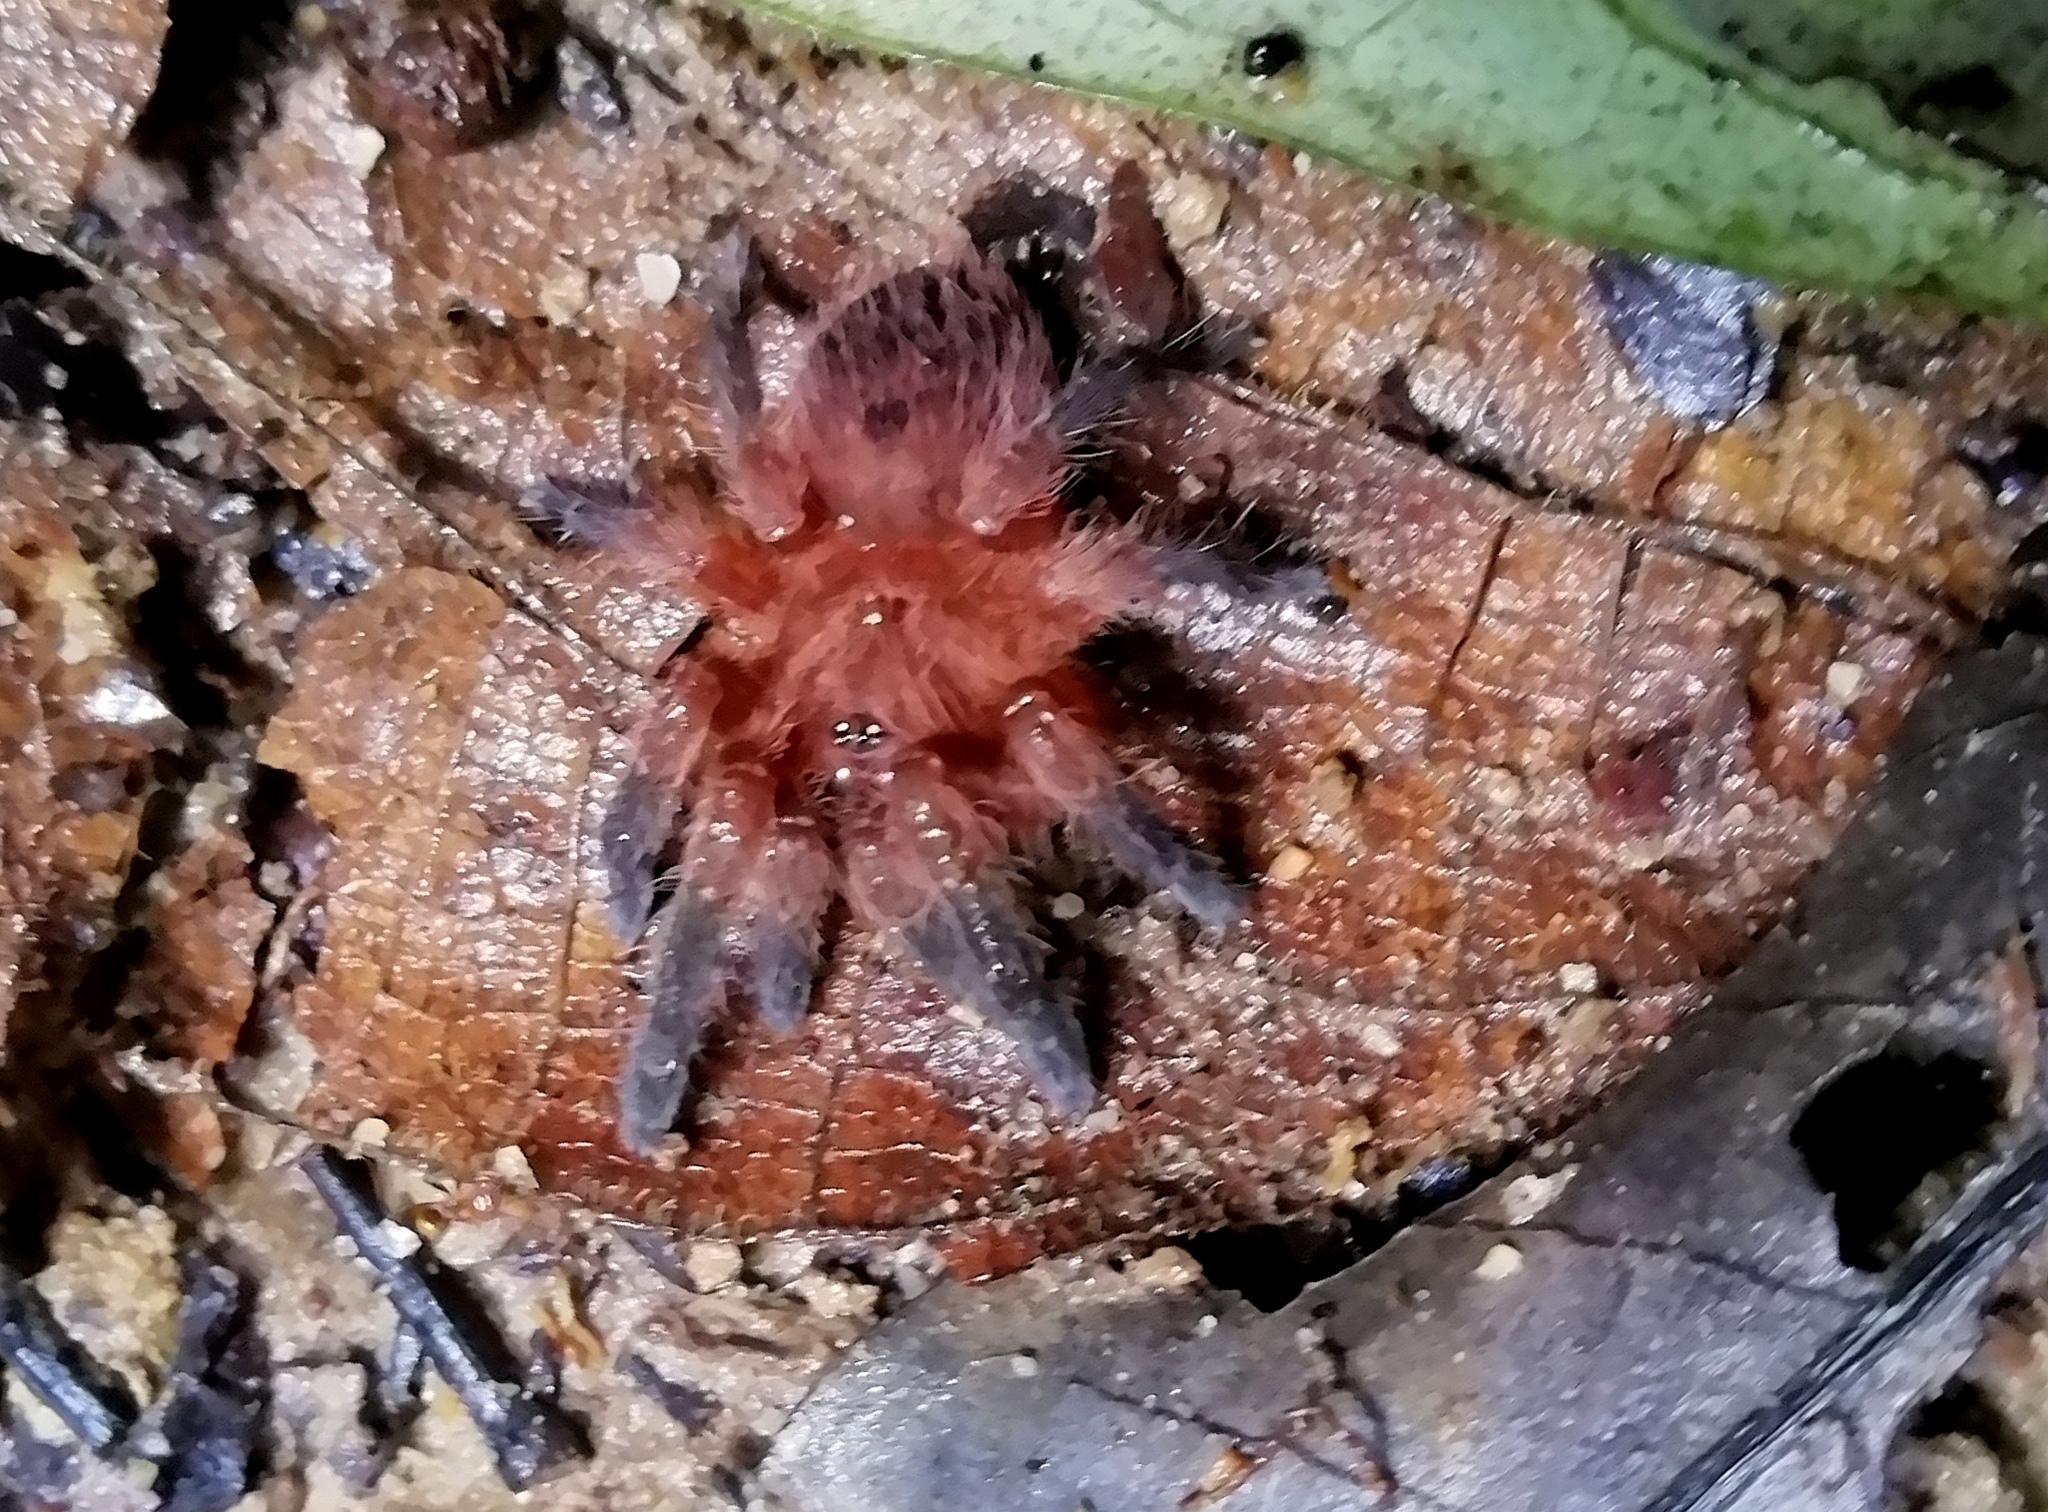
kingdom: Animalia
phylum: Arthropoda
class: Arachnida
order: Araneae
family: Theraphosidae
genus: Neischnocolus
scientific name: Neischnocolus yupanquii
